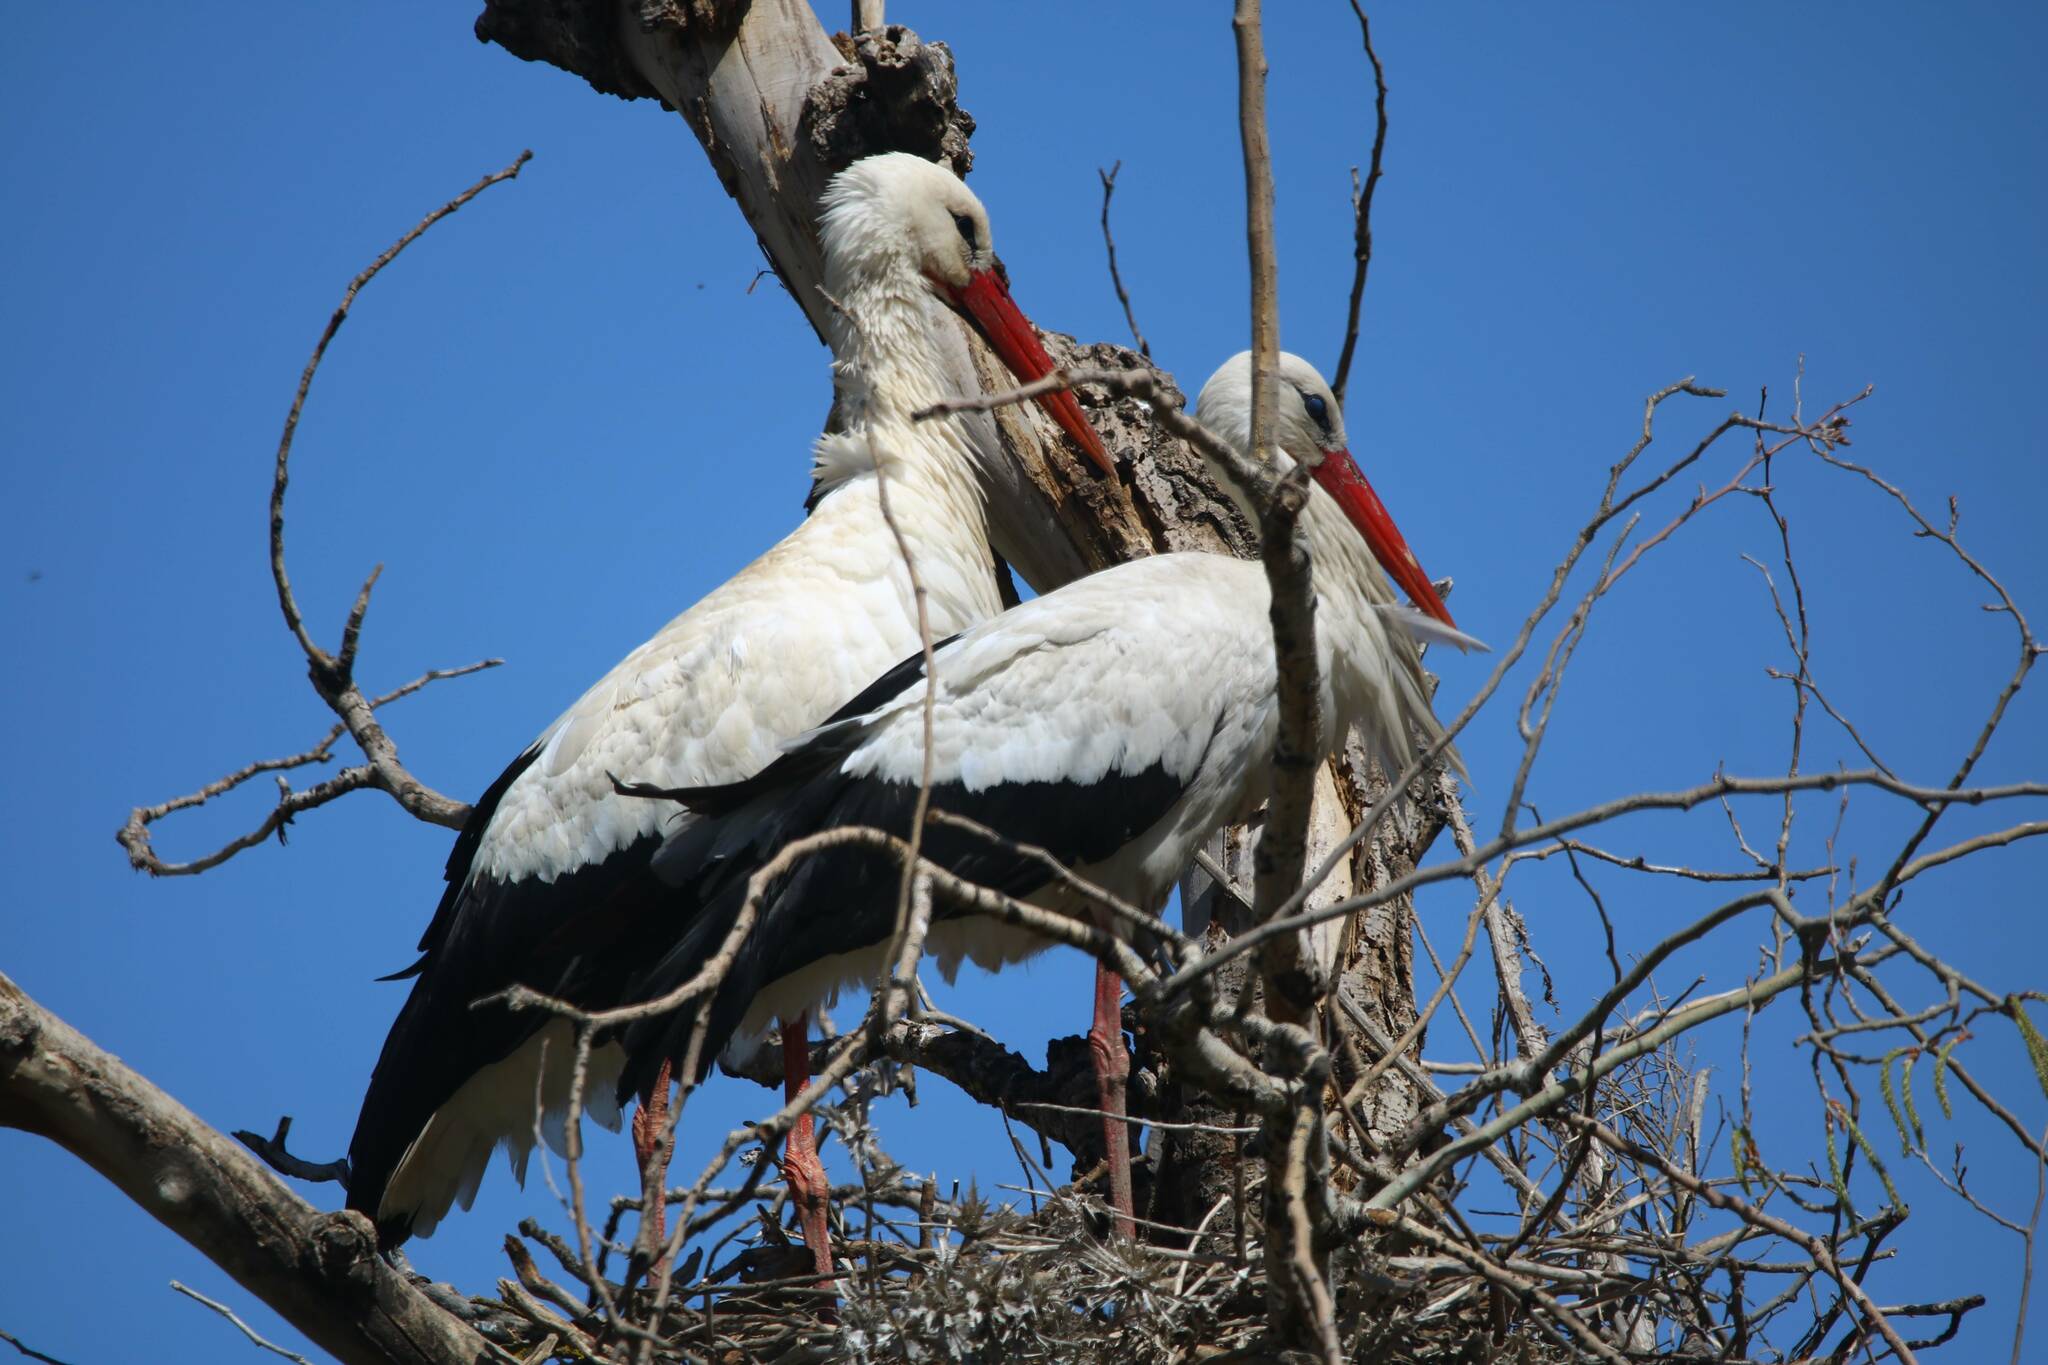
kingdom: Animalia
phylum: Chordata
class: Aves
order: Ciconiiformes
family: Ciconiidae
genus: Ciconia
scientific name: Ciconia ciconia
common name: White stork
